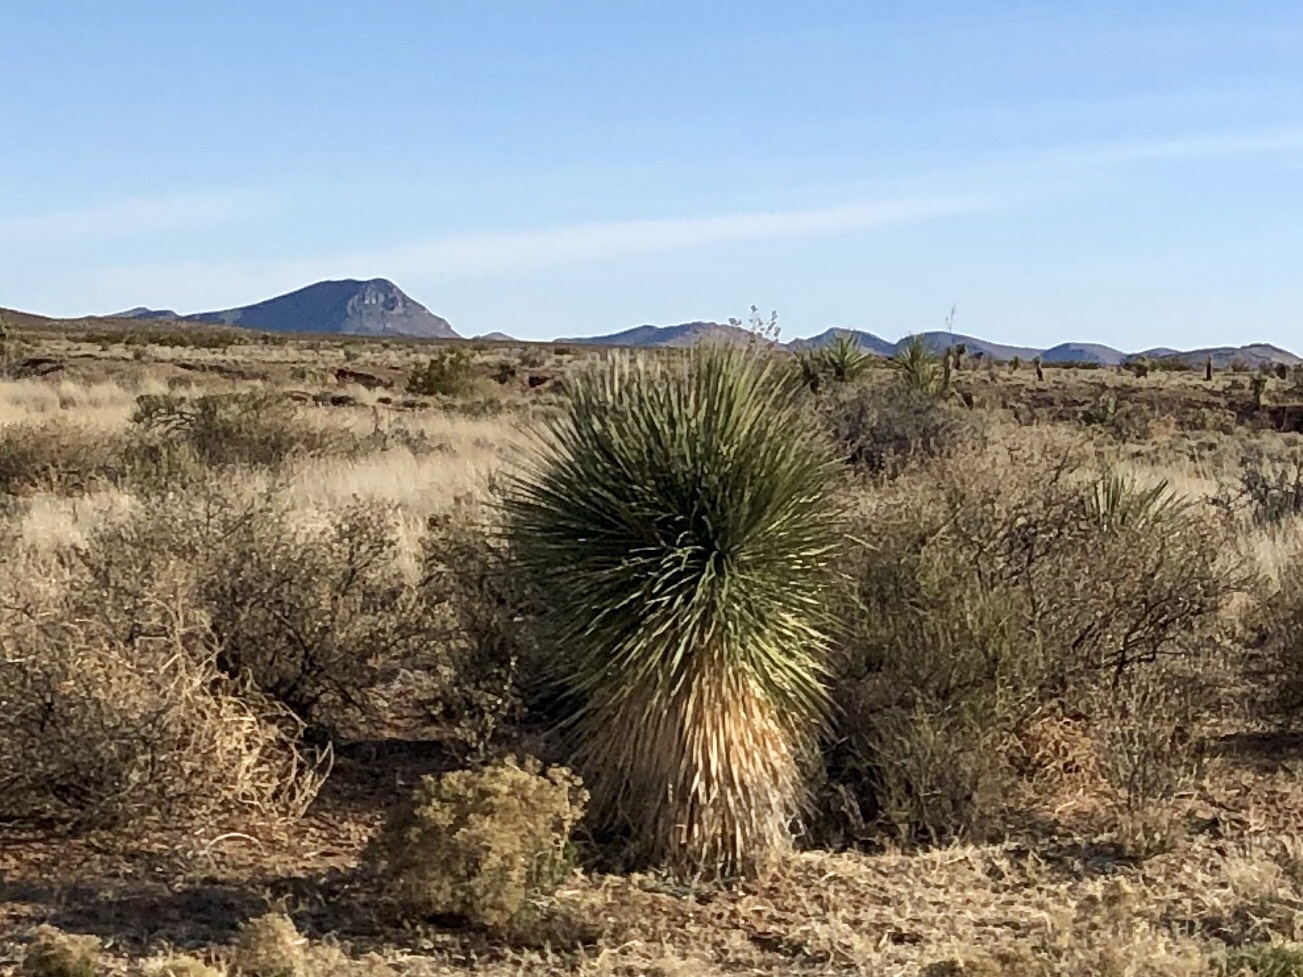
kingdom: Plantae
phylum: Tracheophyta
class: Liliopsida
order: Asparagales
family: Asparagaceae
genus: Yucca
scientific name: Yucca elata
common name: Palmella
